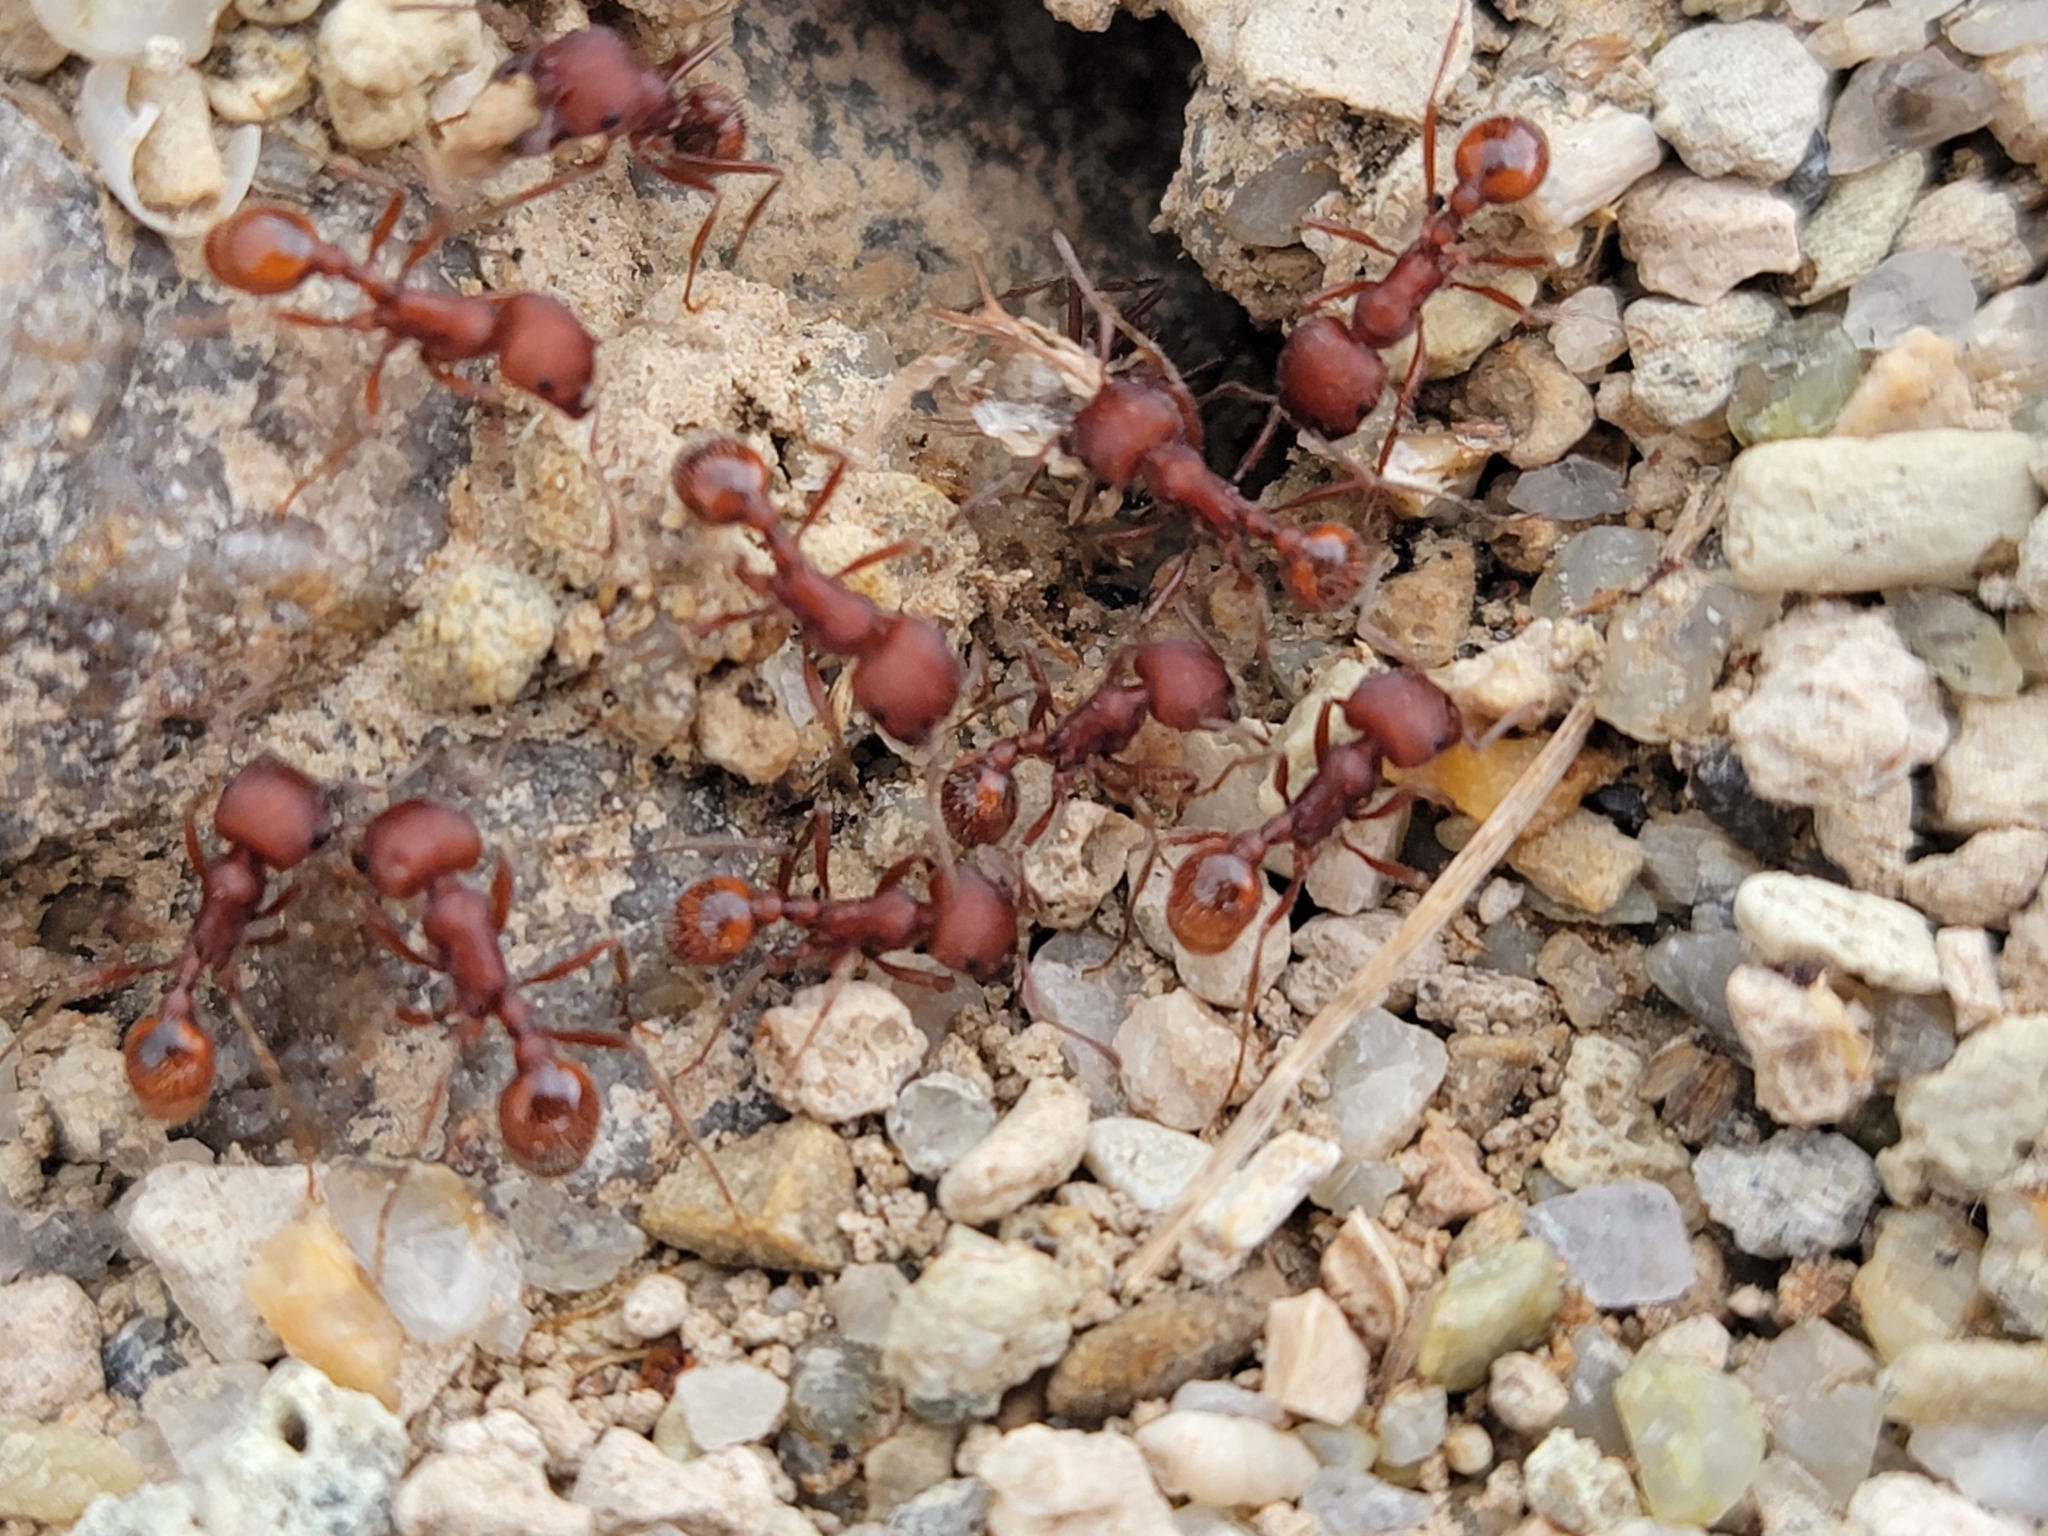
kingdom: Animalia
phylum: Arthropoda
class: Insecta
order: Hymenoptera
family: Formicidae
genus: Pogonomyrmex
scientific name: Pogonomyrmex occidentalis
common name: Western harvester ant
